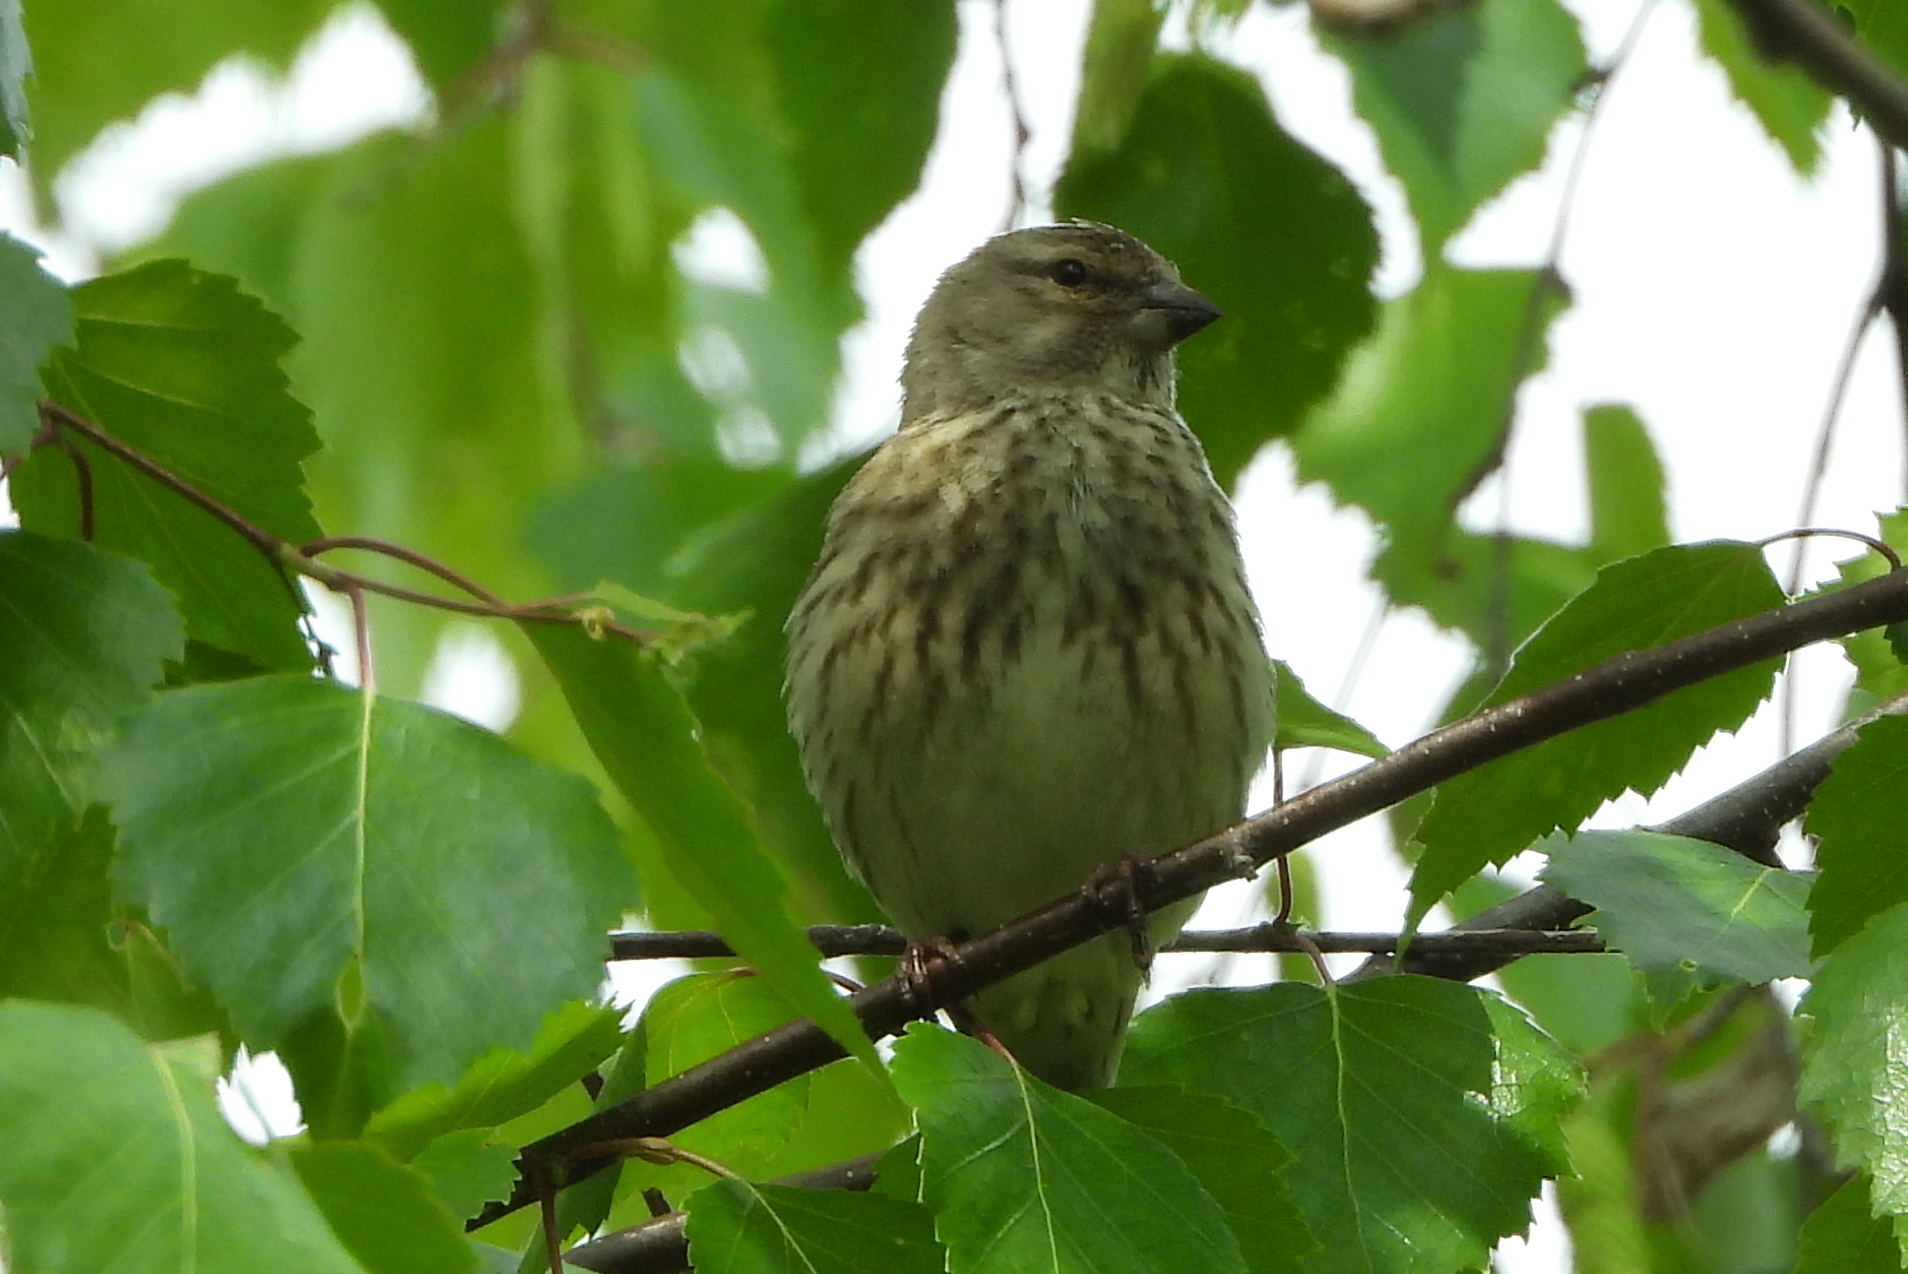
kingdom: Animalia
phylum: Chordata
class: Aves
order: Passeriformes
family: Fringillidae
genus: Linaria
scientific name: Linaria cannabina
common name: Common linnet
